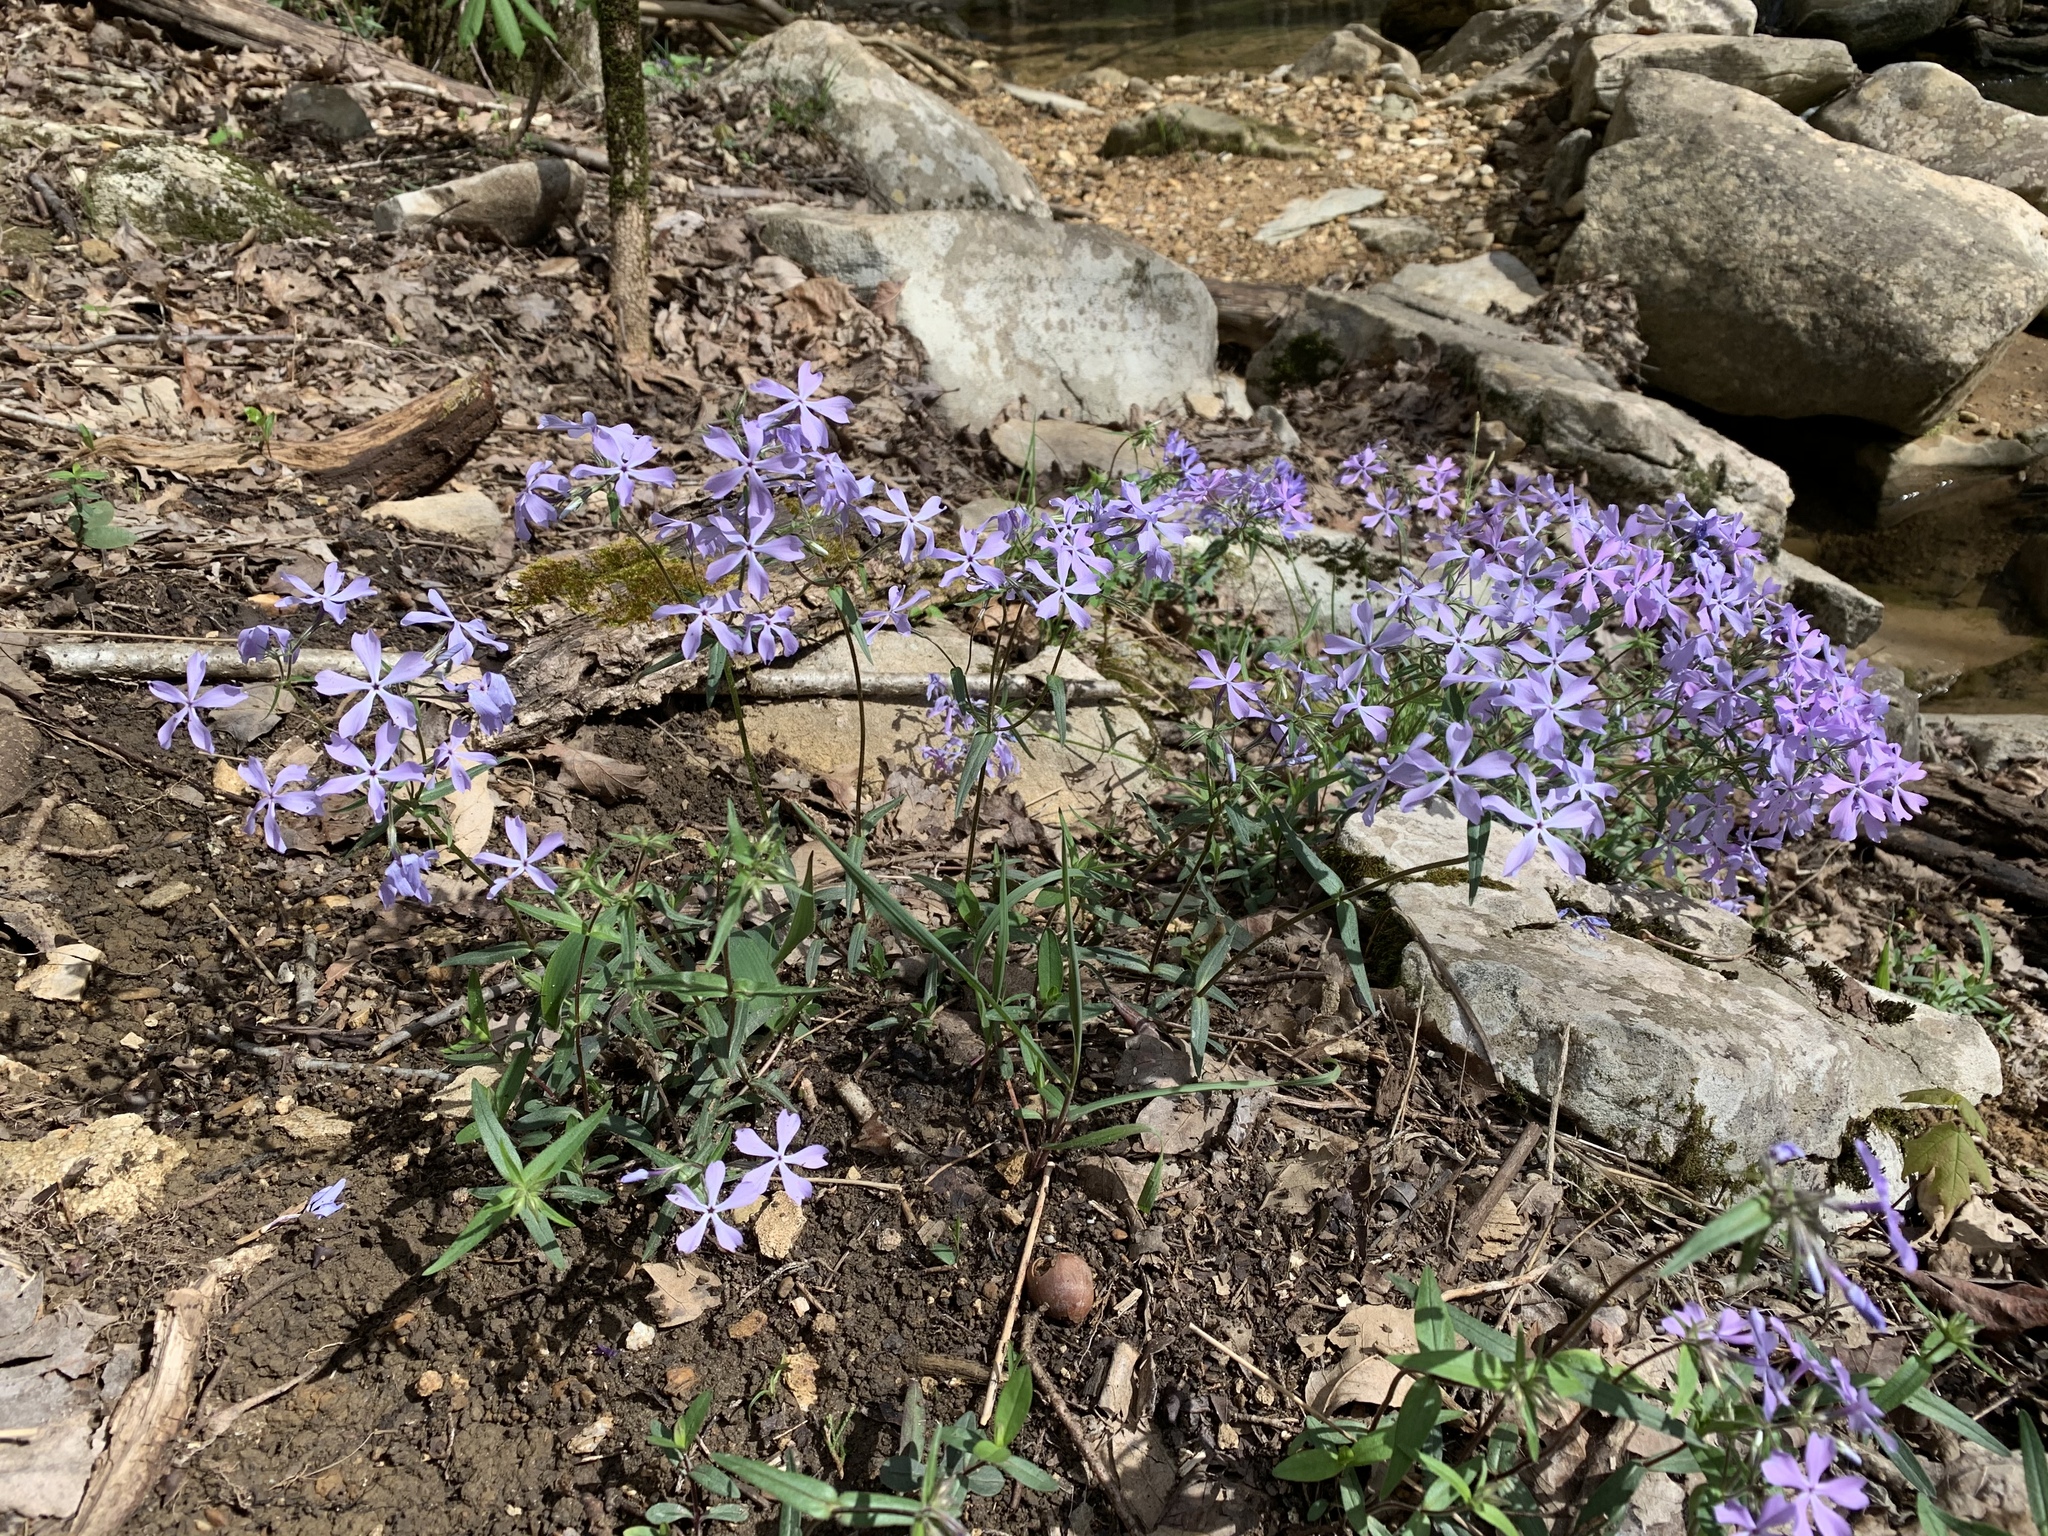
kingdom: Plantae
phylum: Tracheophyta
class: Magnoliopsida
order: Ericales
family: Polemoniaceae
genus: Phlox
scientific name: Phlox divaricata
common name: Blue phlox
